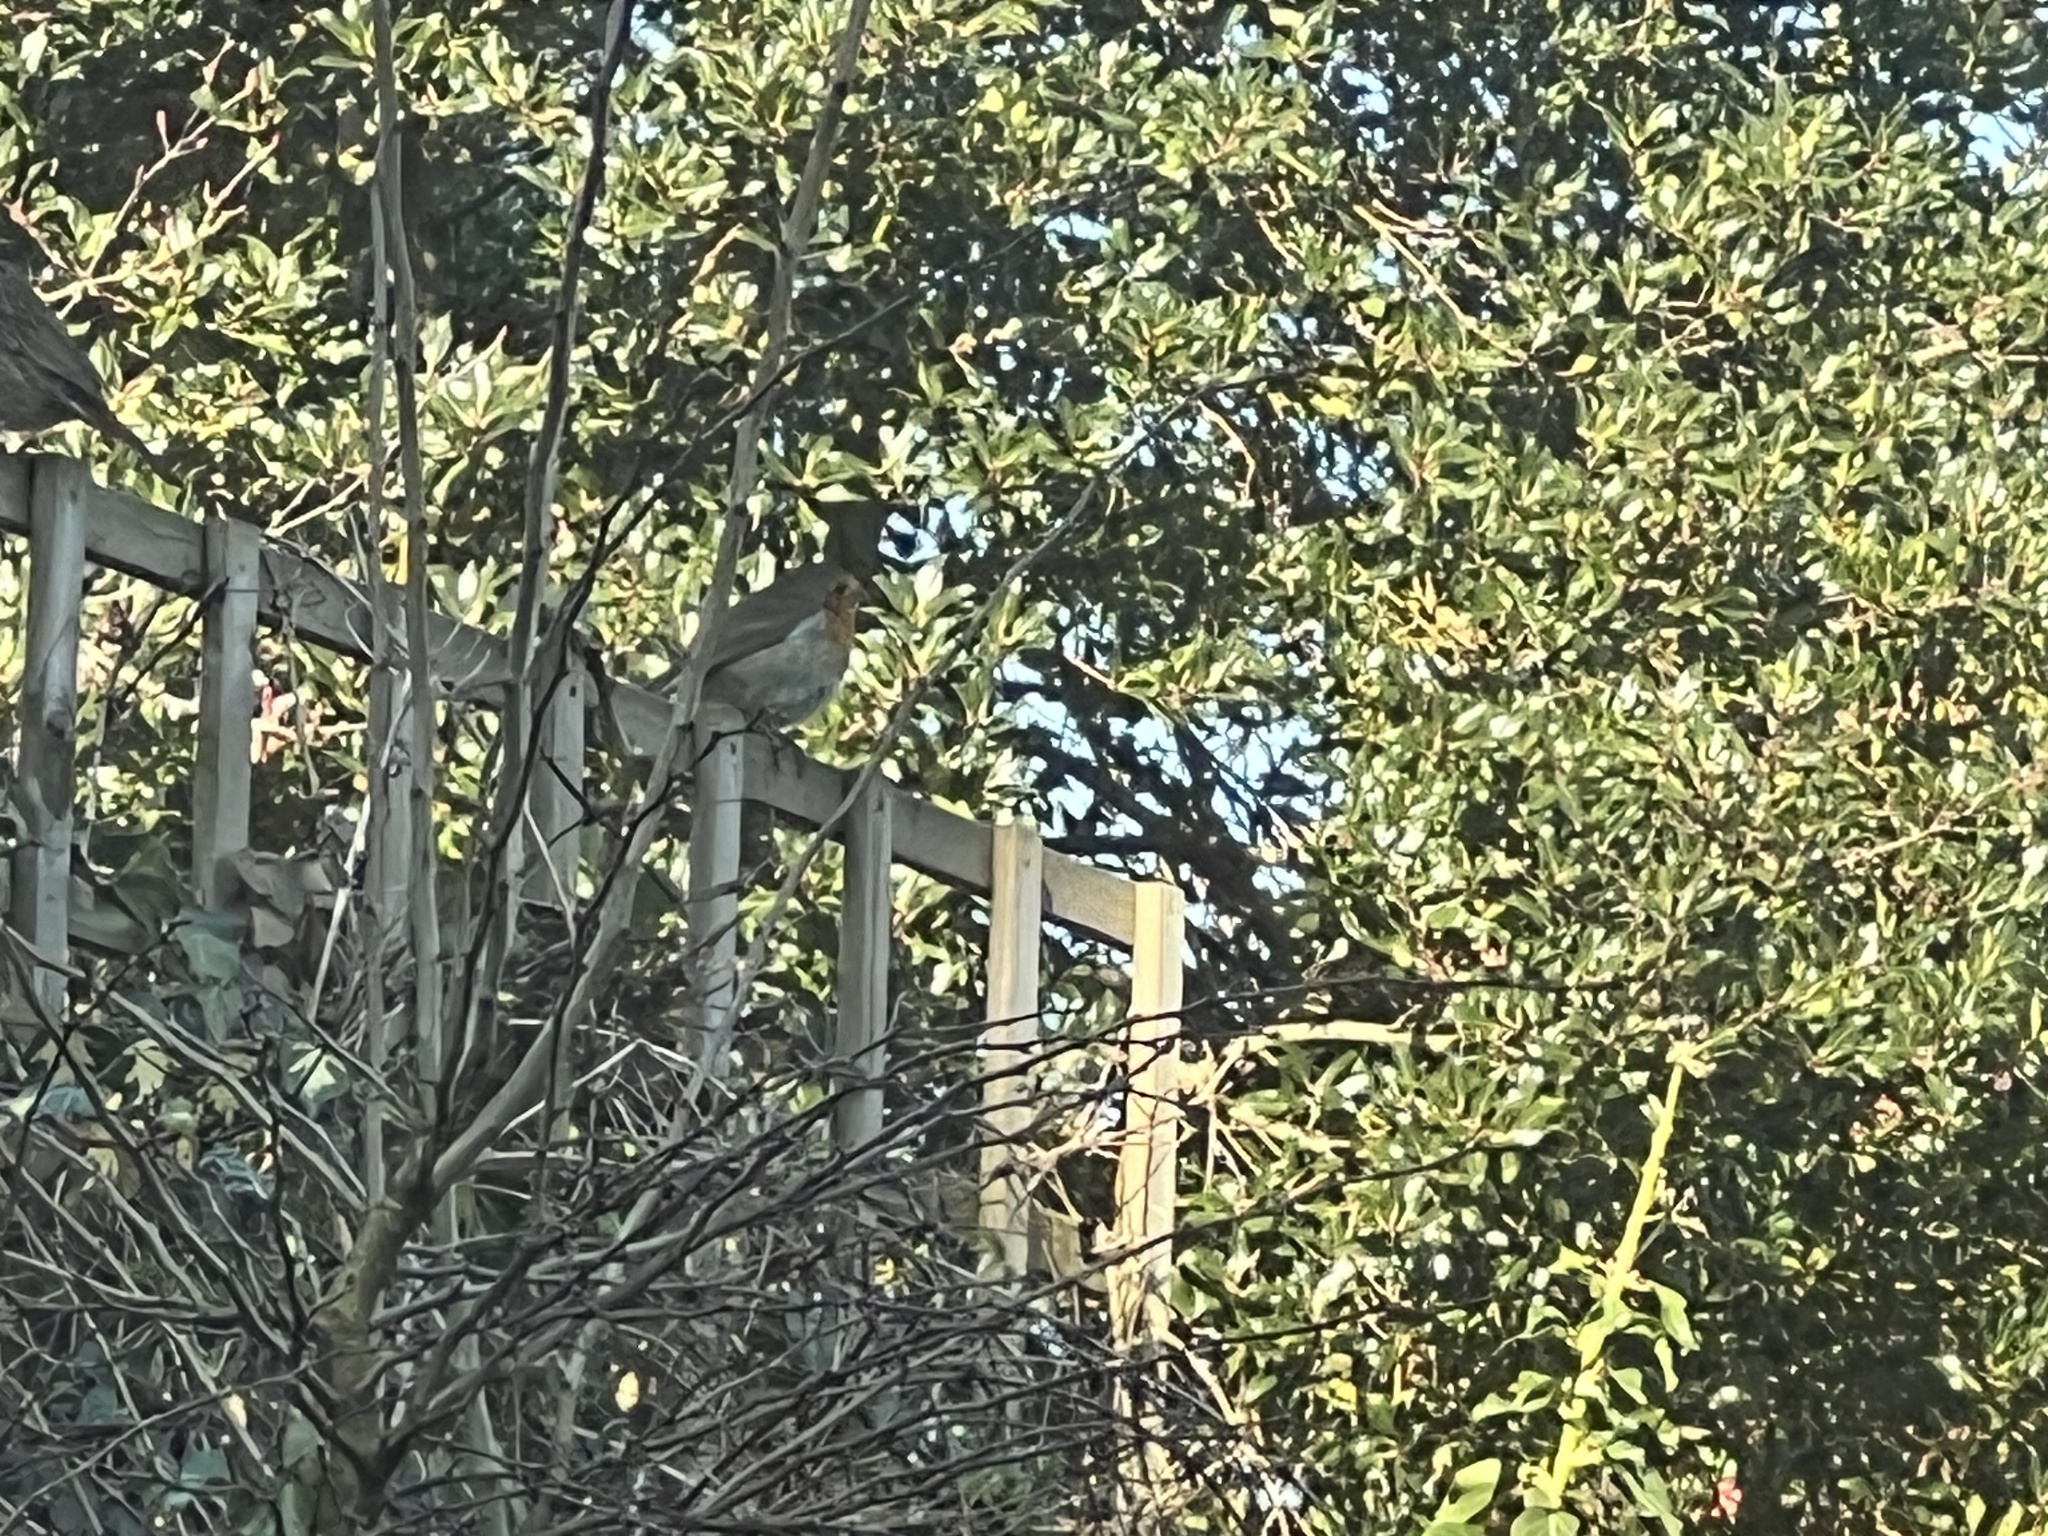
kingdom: Animalia
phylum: Chordata
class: Aves
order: Passeriformes
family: Muscicapidae
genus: Erithacus
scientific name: Erithacus rubecula
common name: European robin
